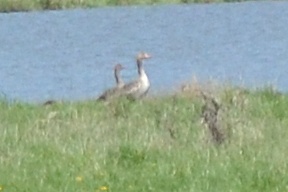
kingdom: Animalia
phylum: Chordata
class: Aves
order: Anseriformes
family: Anatidae
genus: Anser
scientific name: Anser anser
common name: Greylag goose
